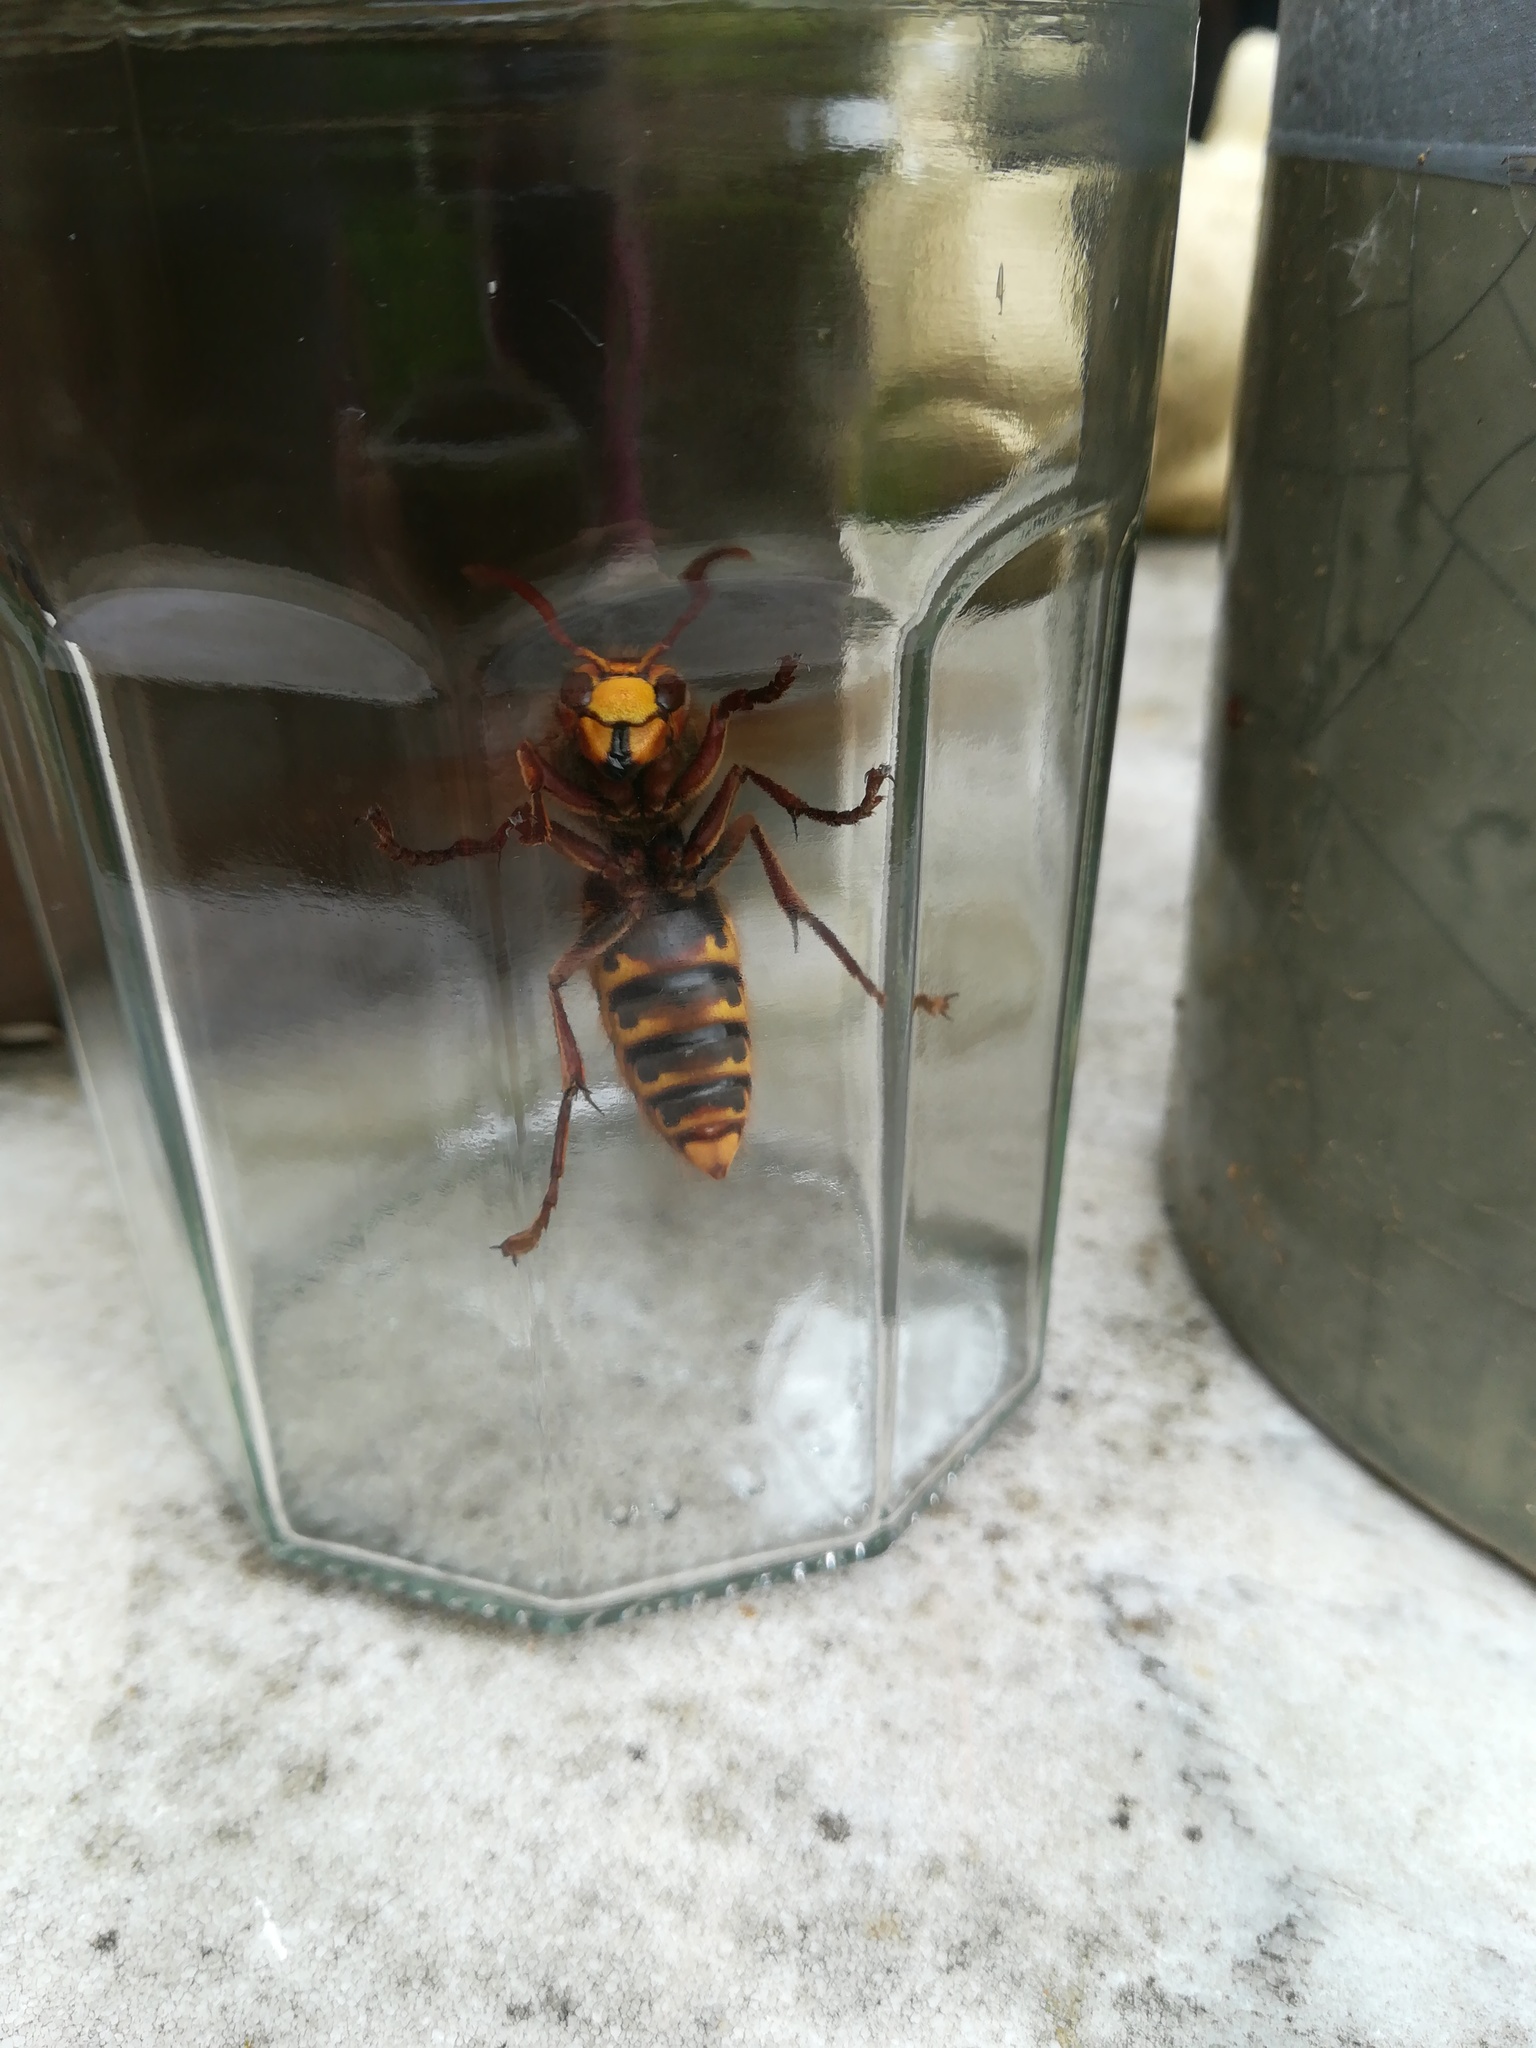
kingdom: Animalia
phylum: Arthropoda
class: Insecta
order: Hymenoptera
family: Vespidae
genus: Vespa
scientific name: Vespa crabro
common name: Hornet
